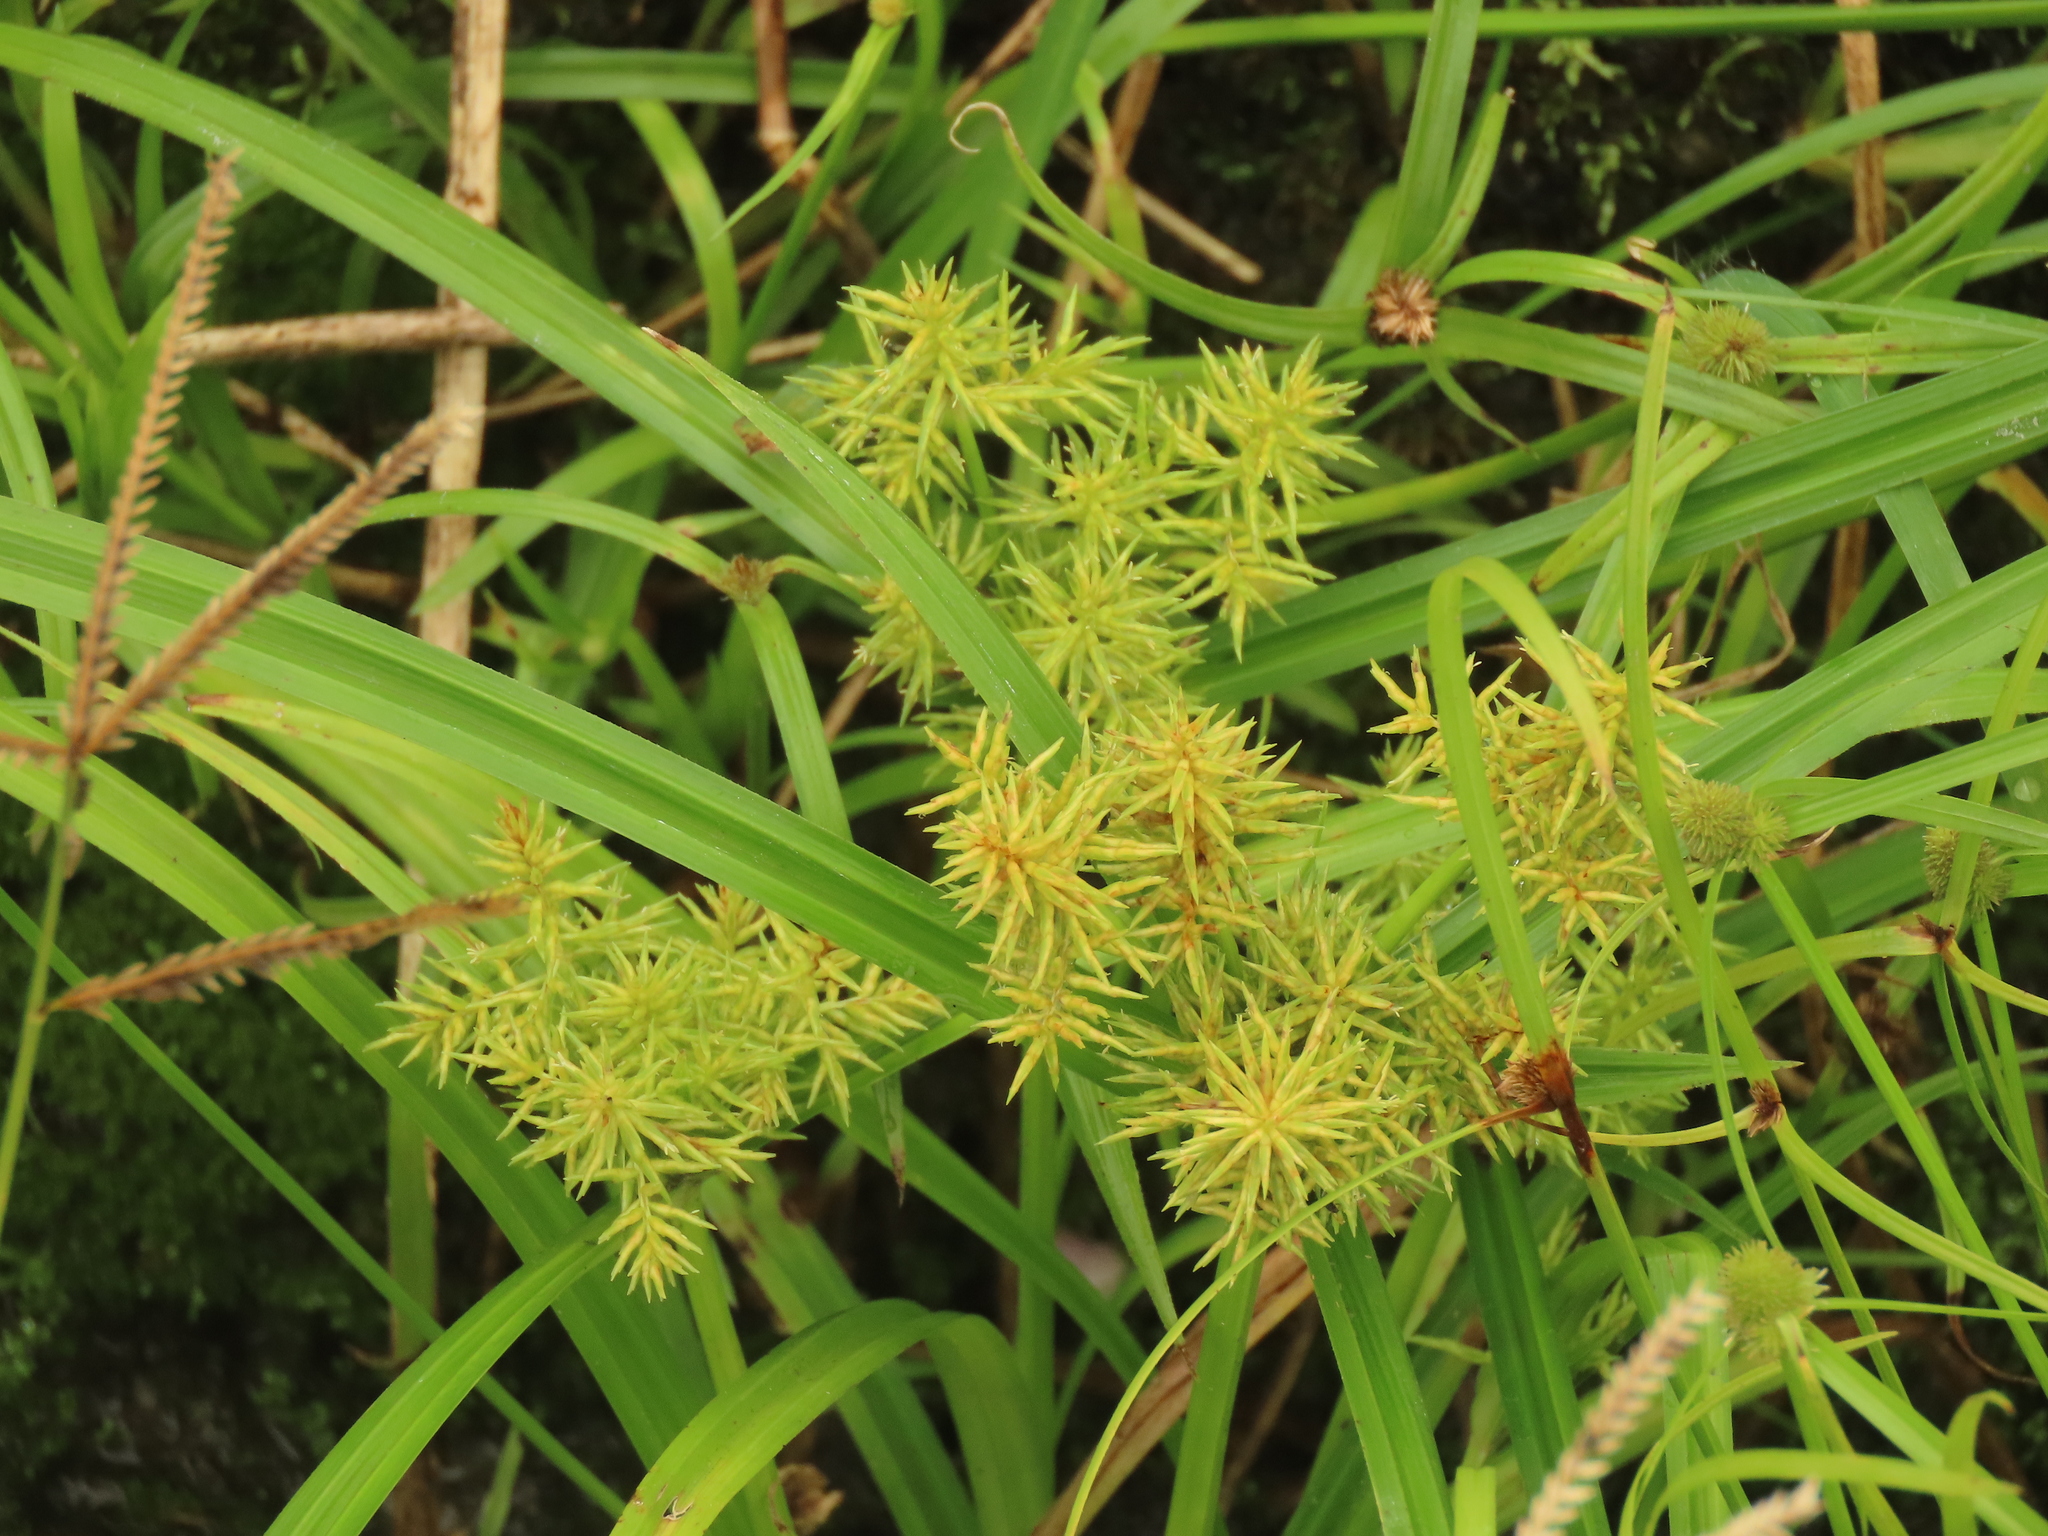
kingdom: Plantae
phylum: Tracheophyta
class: Liliopsida
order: Poales
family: Cyperaceae
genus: Cyperus
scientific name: Cyperus odoratus
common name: Fragrant flatsedge
